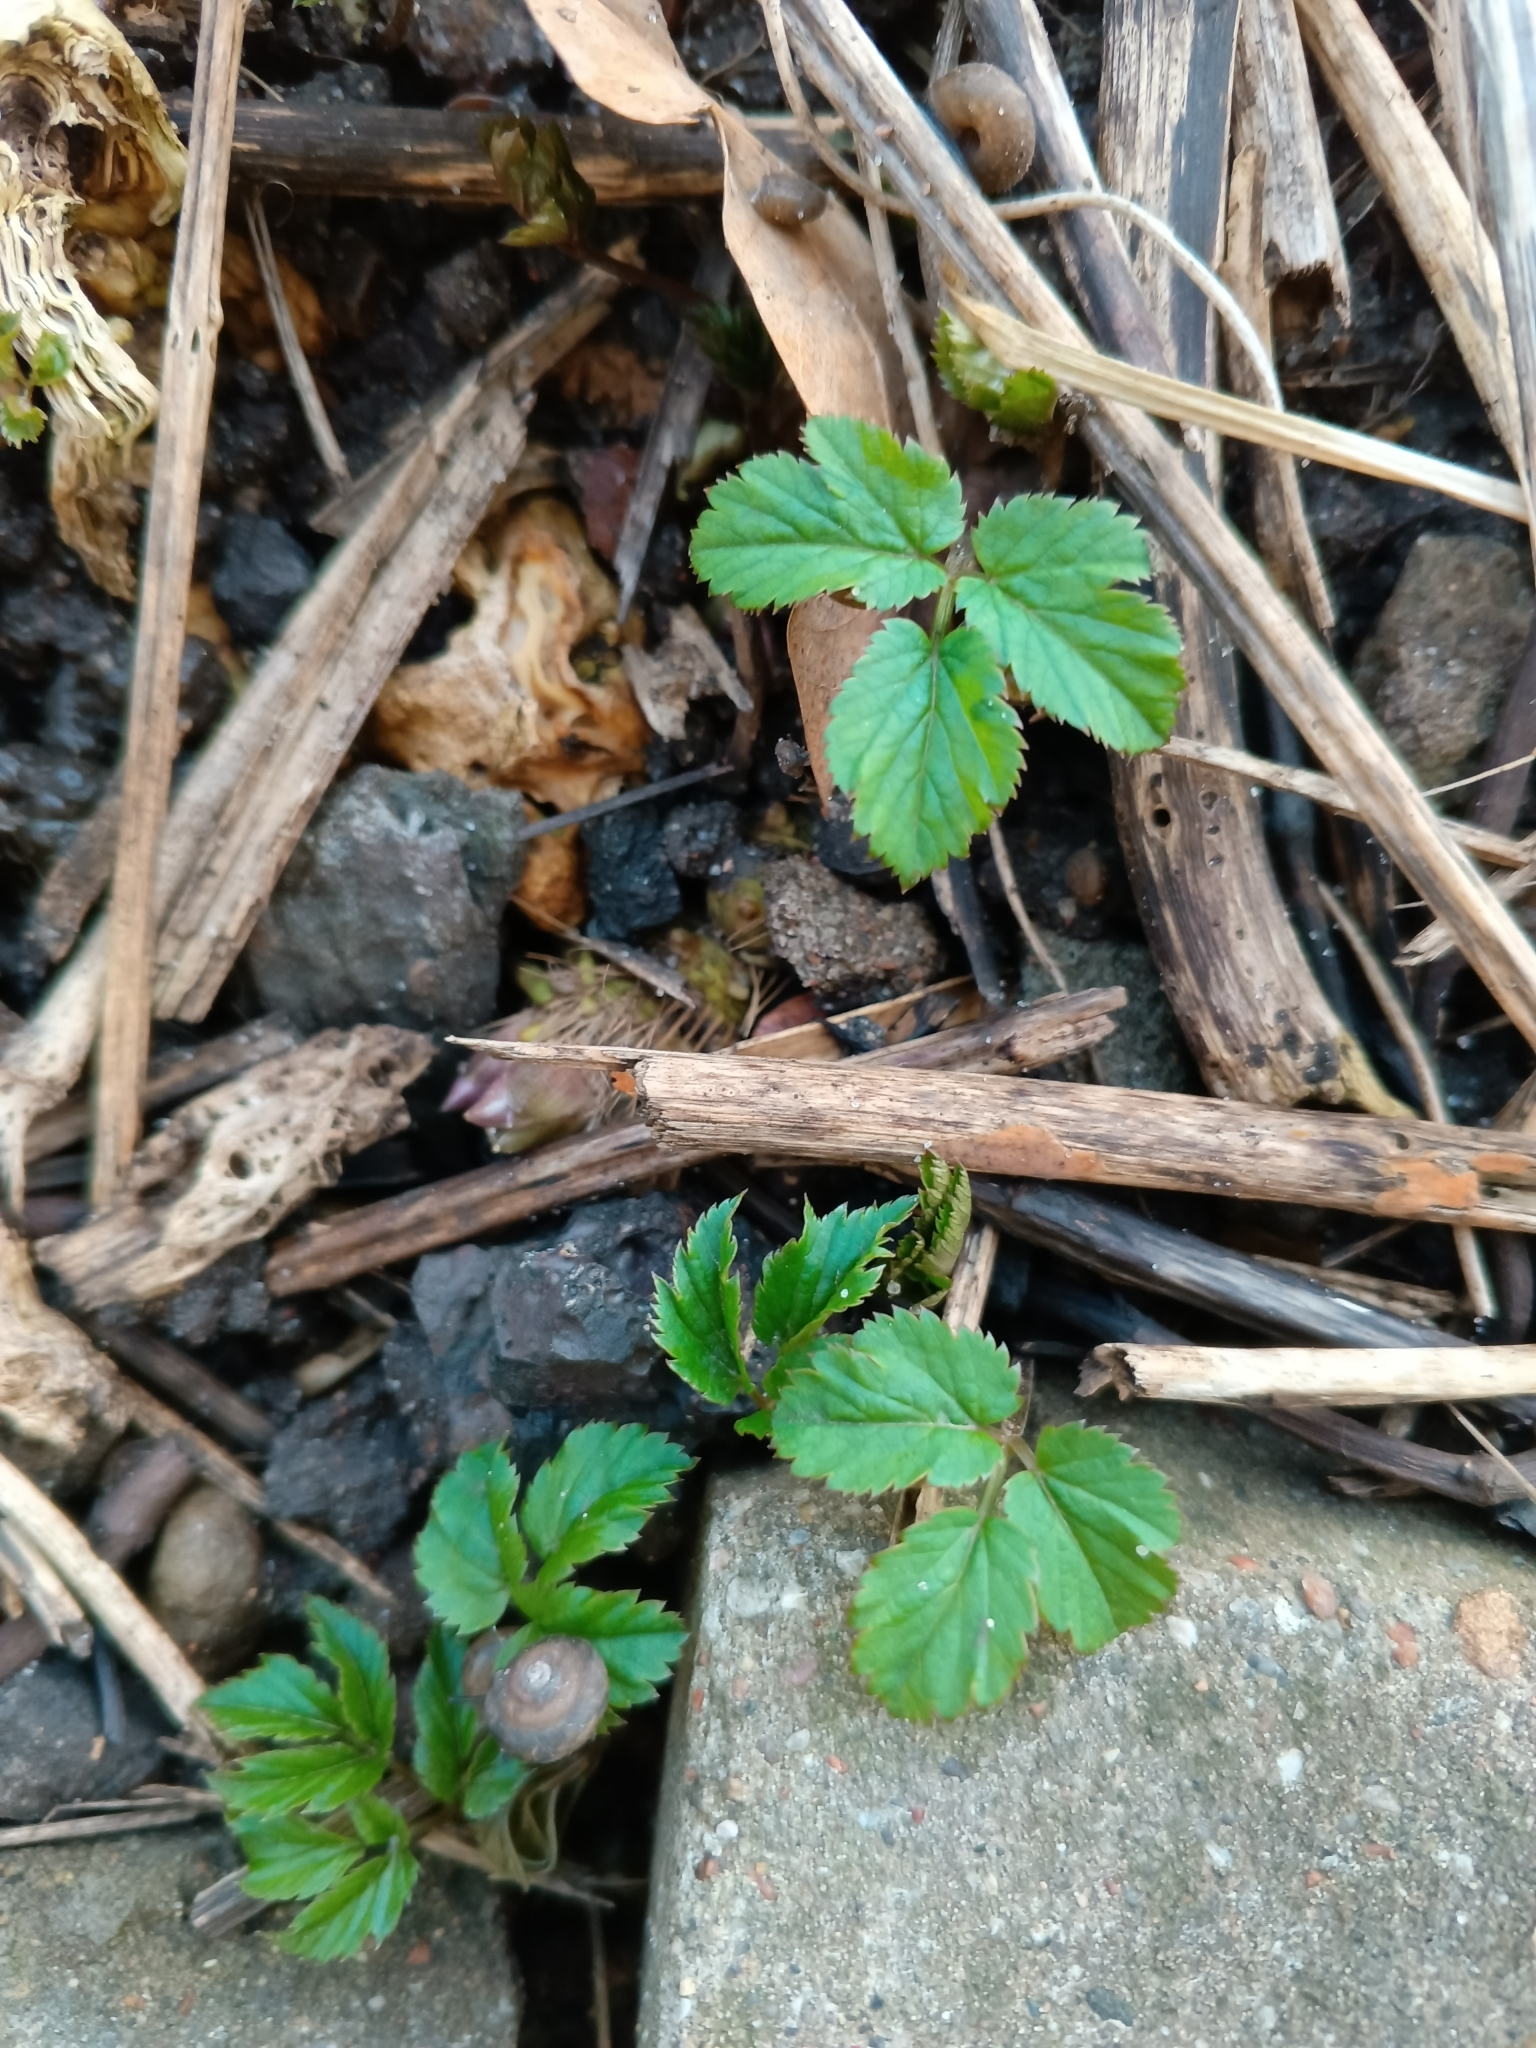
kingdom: Plantae
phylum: Tracheophyta
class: Magnoliopsida
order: Apiales
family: Apiaceae
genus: Aegopodium
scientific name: Aegopodium podagraria
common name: Ground-elder
